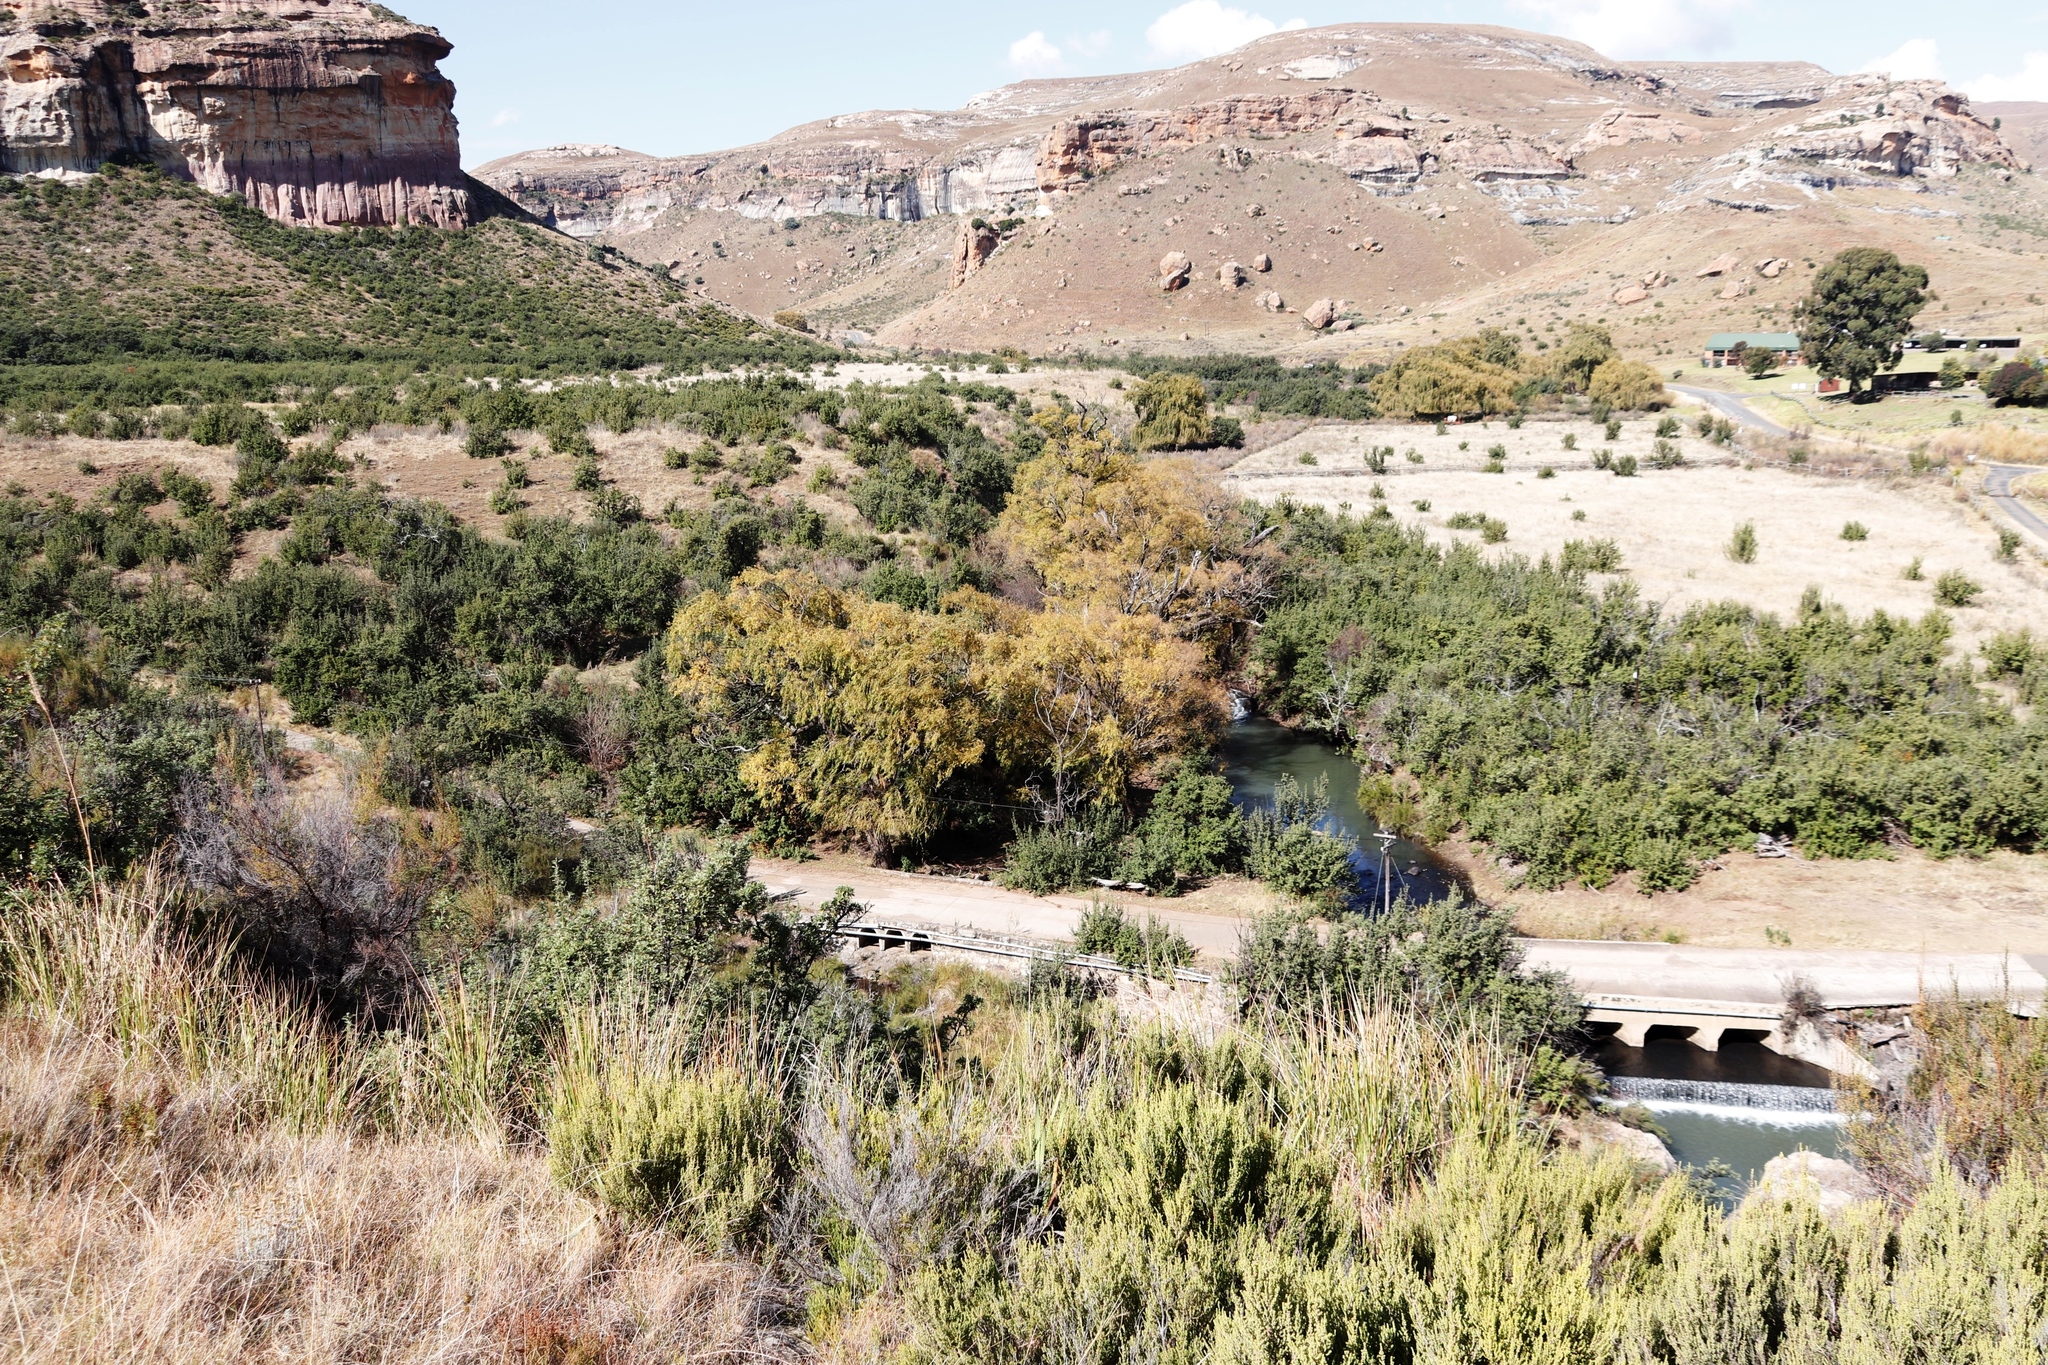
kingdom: Plantae
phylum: Tracheophyta
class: Magnoliopsida
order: Malpighiales
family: Salicaceae
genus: Salix
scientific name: Salix babylonica
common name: Weeping willow
